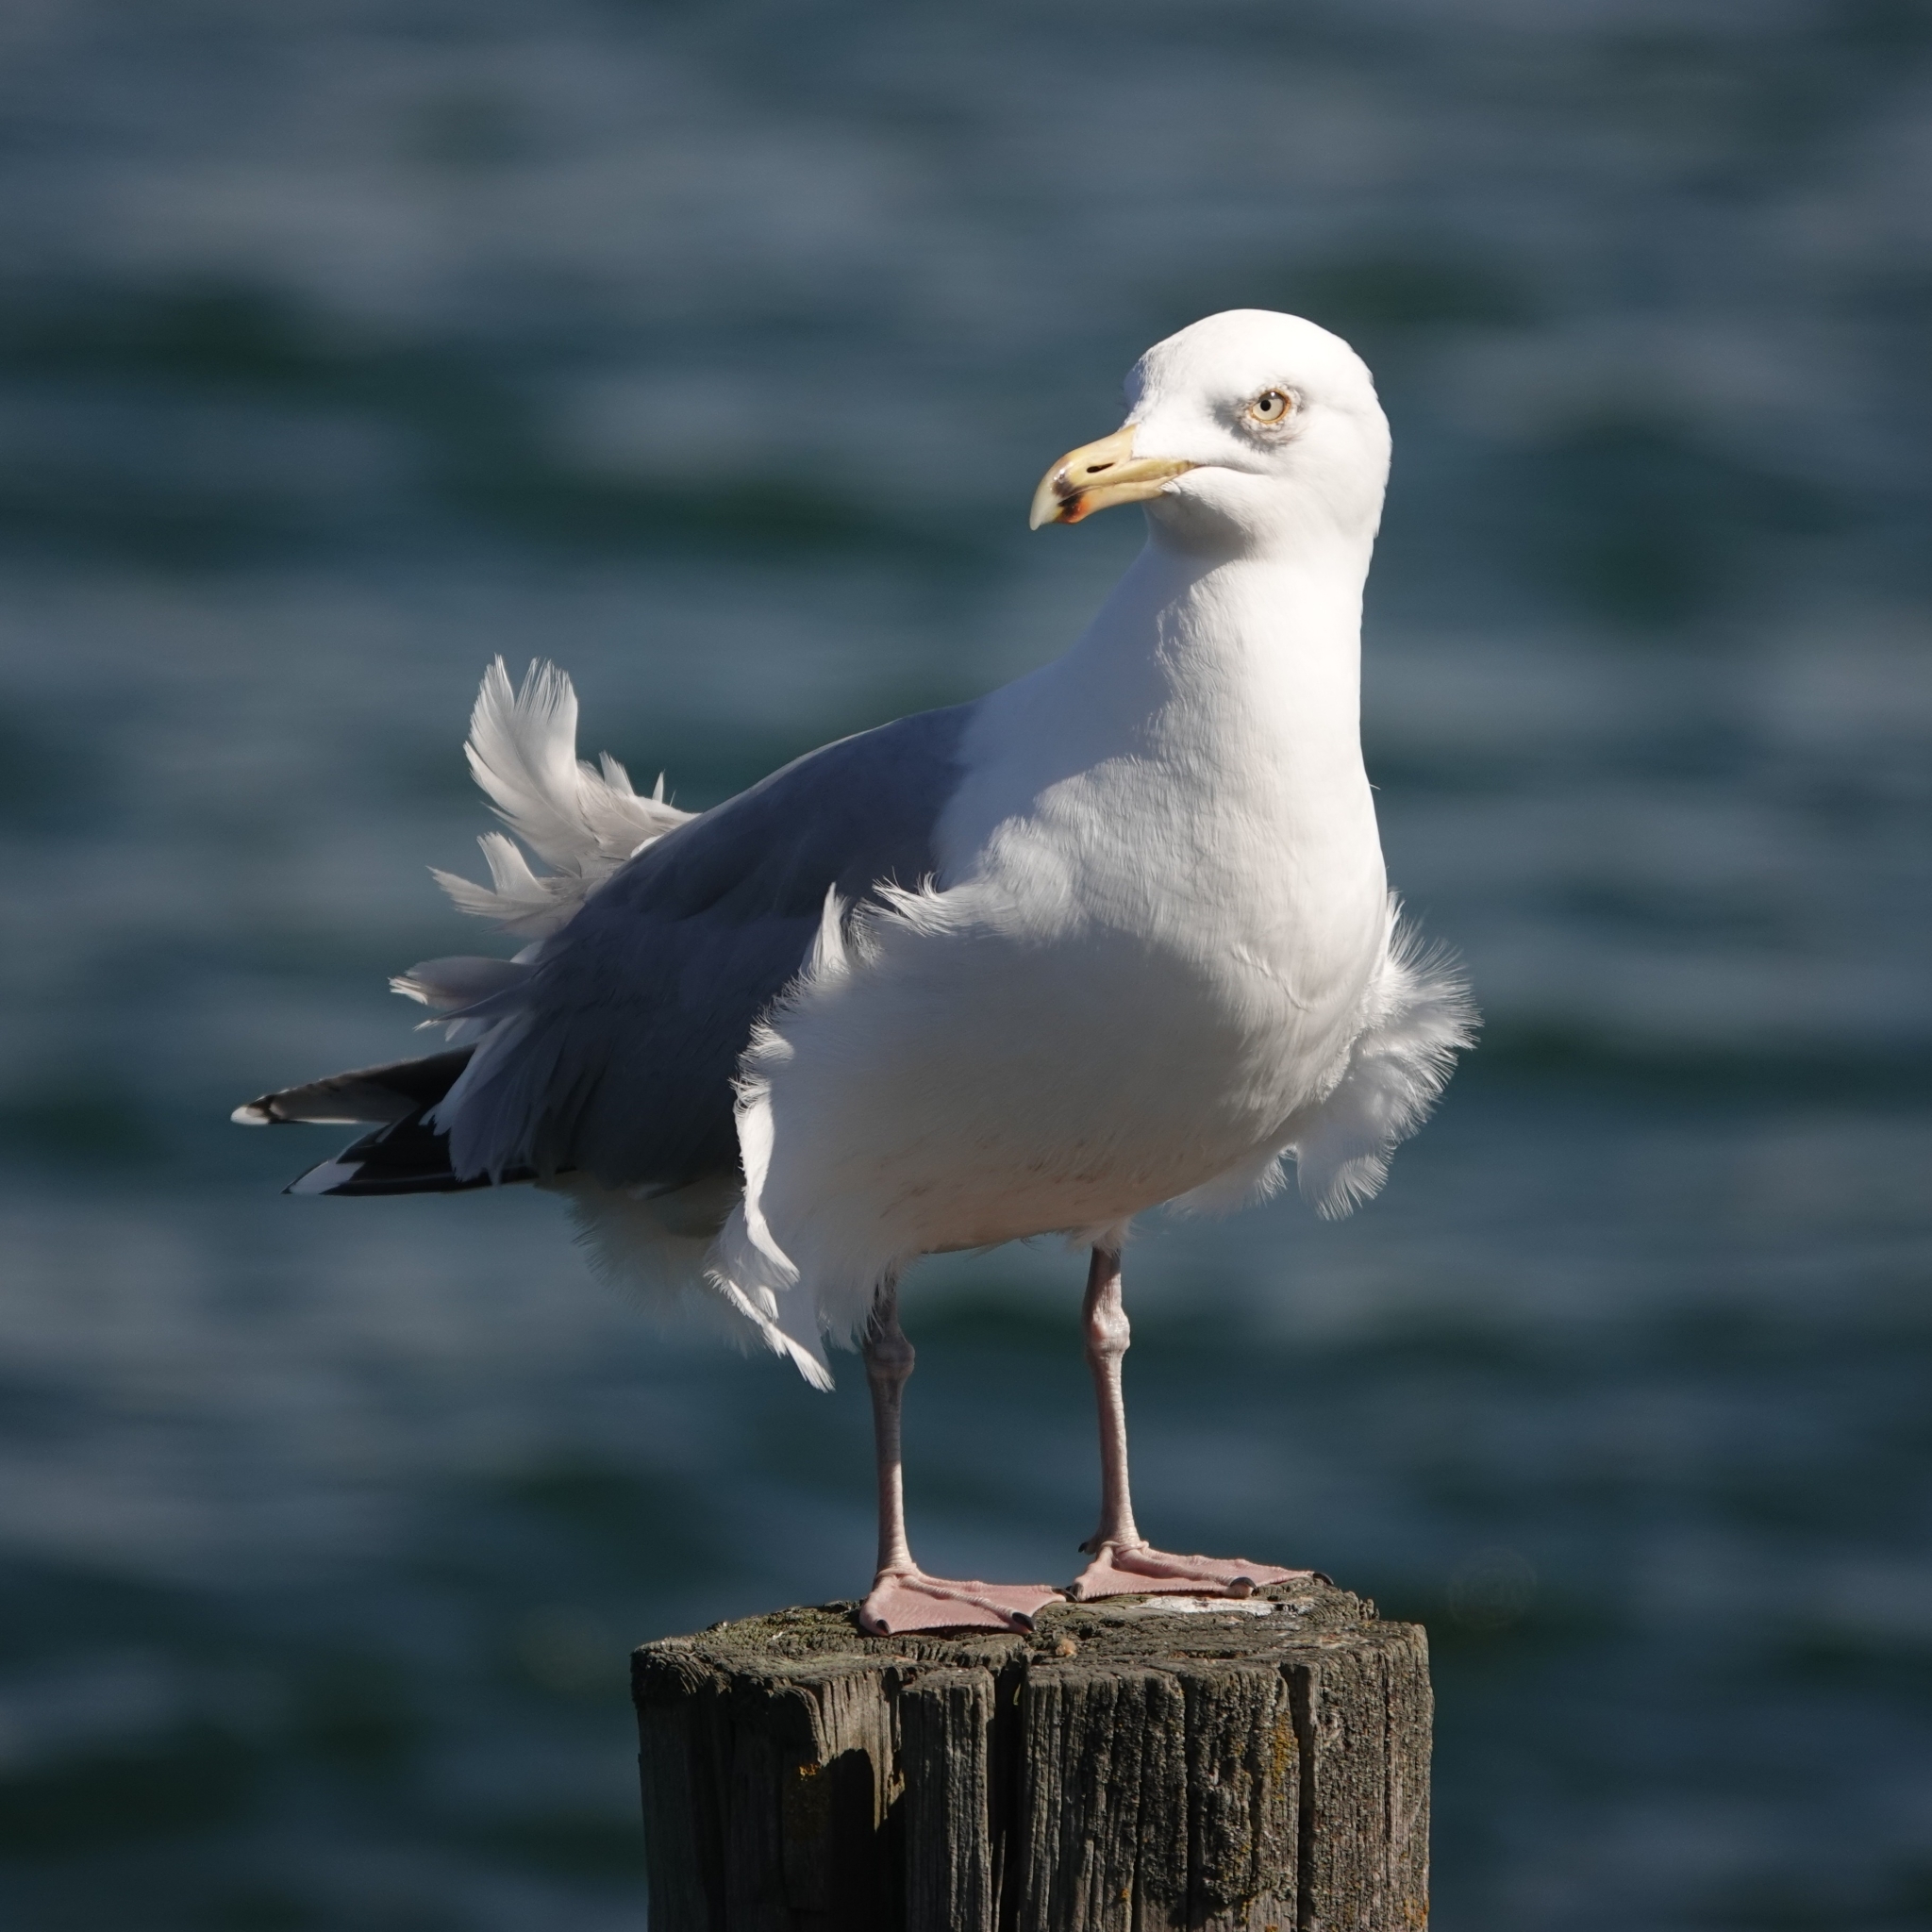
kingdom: Animalia
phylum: Chordata
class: Aves
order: Charadriiformes
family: Laridae
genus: Larus
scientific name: Larus argentatus
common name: Herring gull
